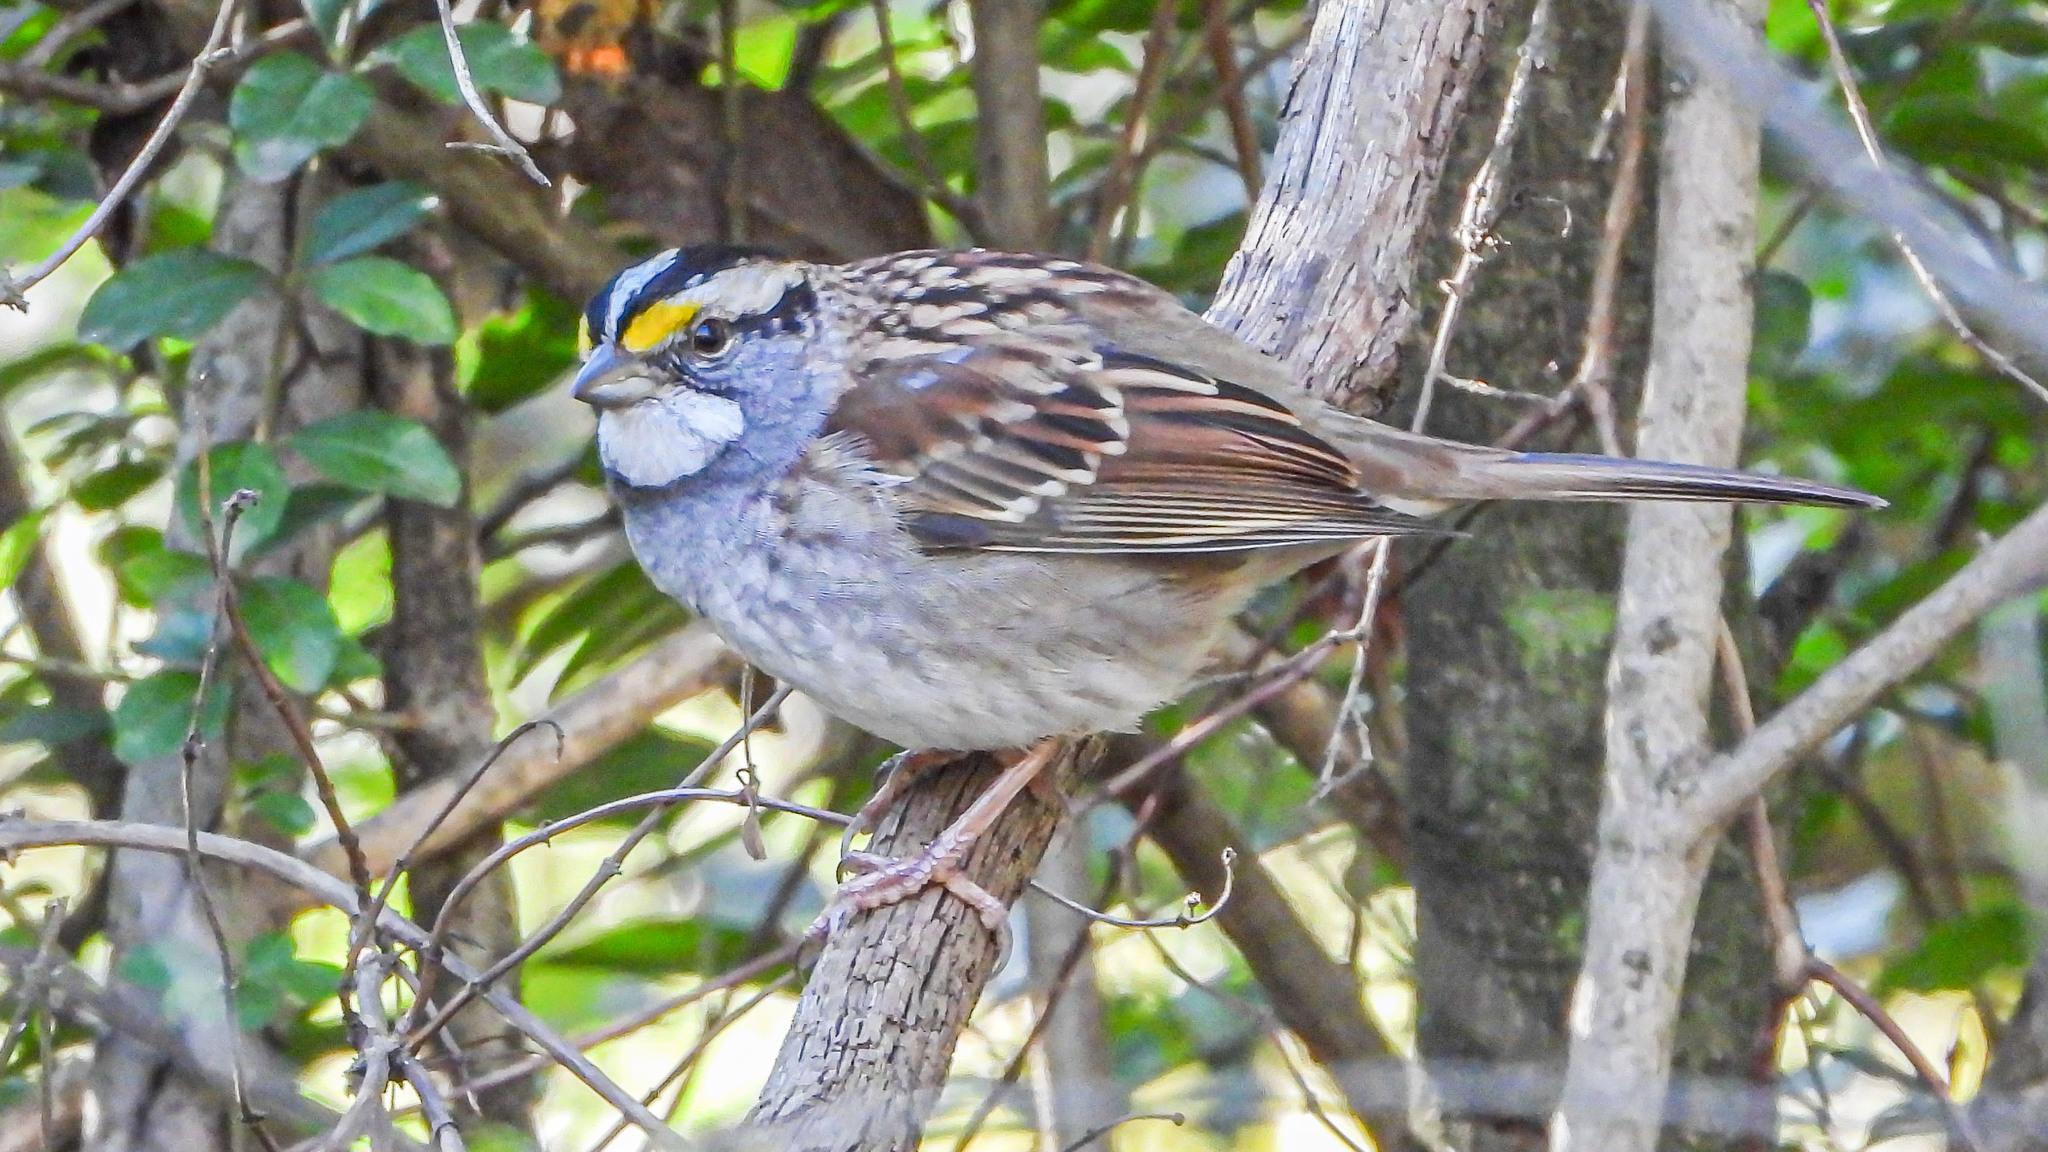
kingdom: Animalia
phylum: Chordata
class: Aves
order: Passeriformes
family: Passerellidae
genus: Zonotrichia
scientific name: Zonotrichia albicollis
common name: White-throated sparrow
